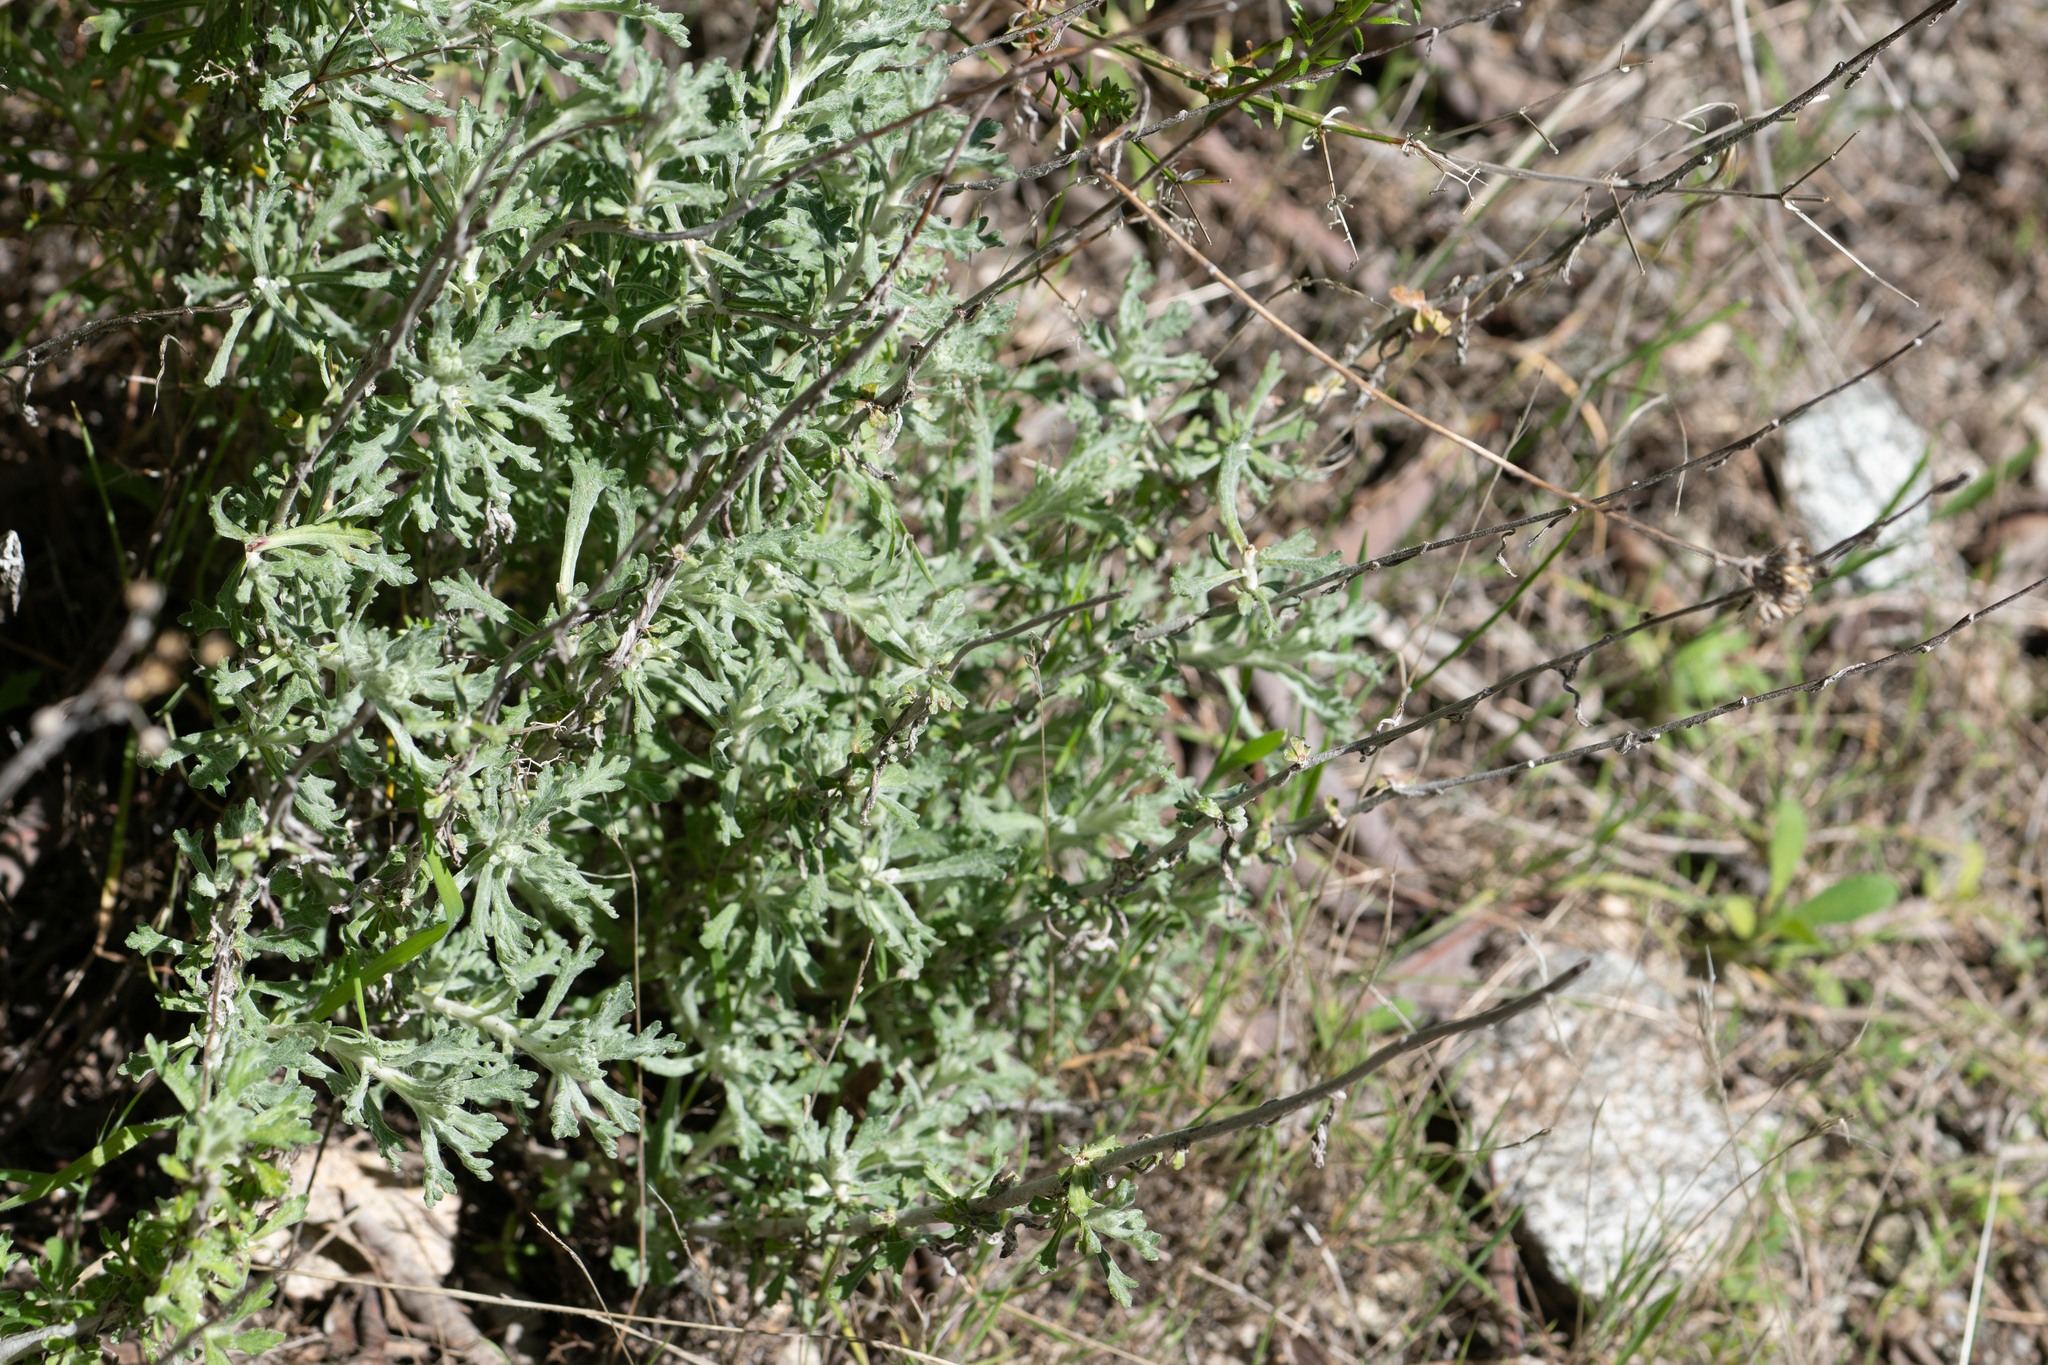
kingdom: Plantae
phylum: Tracheophyta
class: Magnoliopsida
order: Asterales
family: Asteraceae
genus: Eriophyllum
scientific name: Eriophyllum confertiflorum
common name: Golden-yarrow
